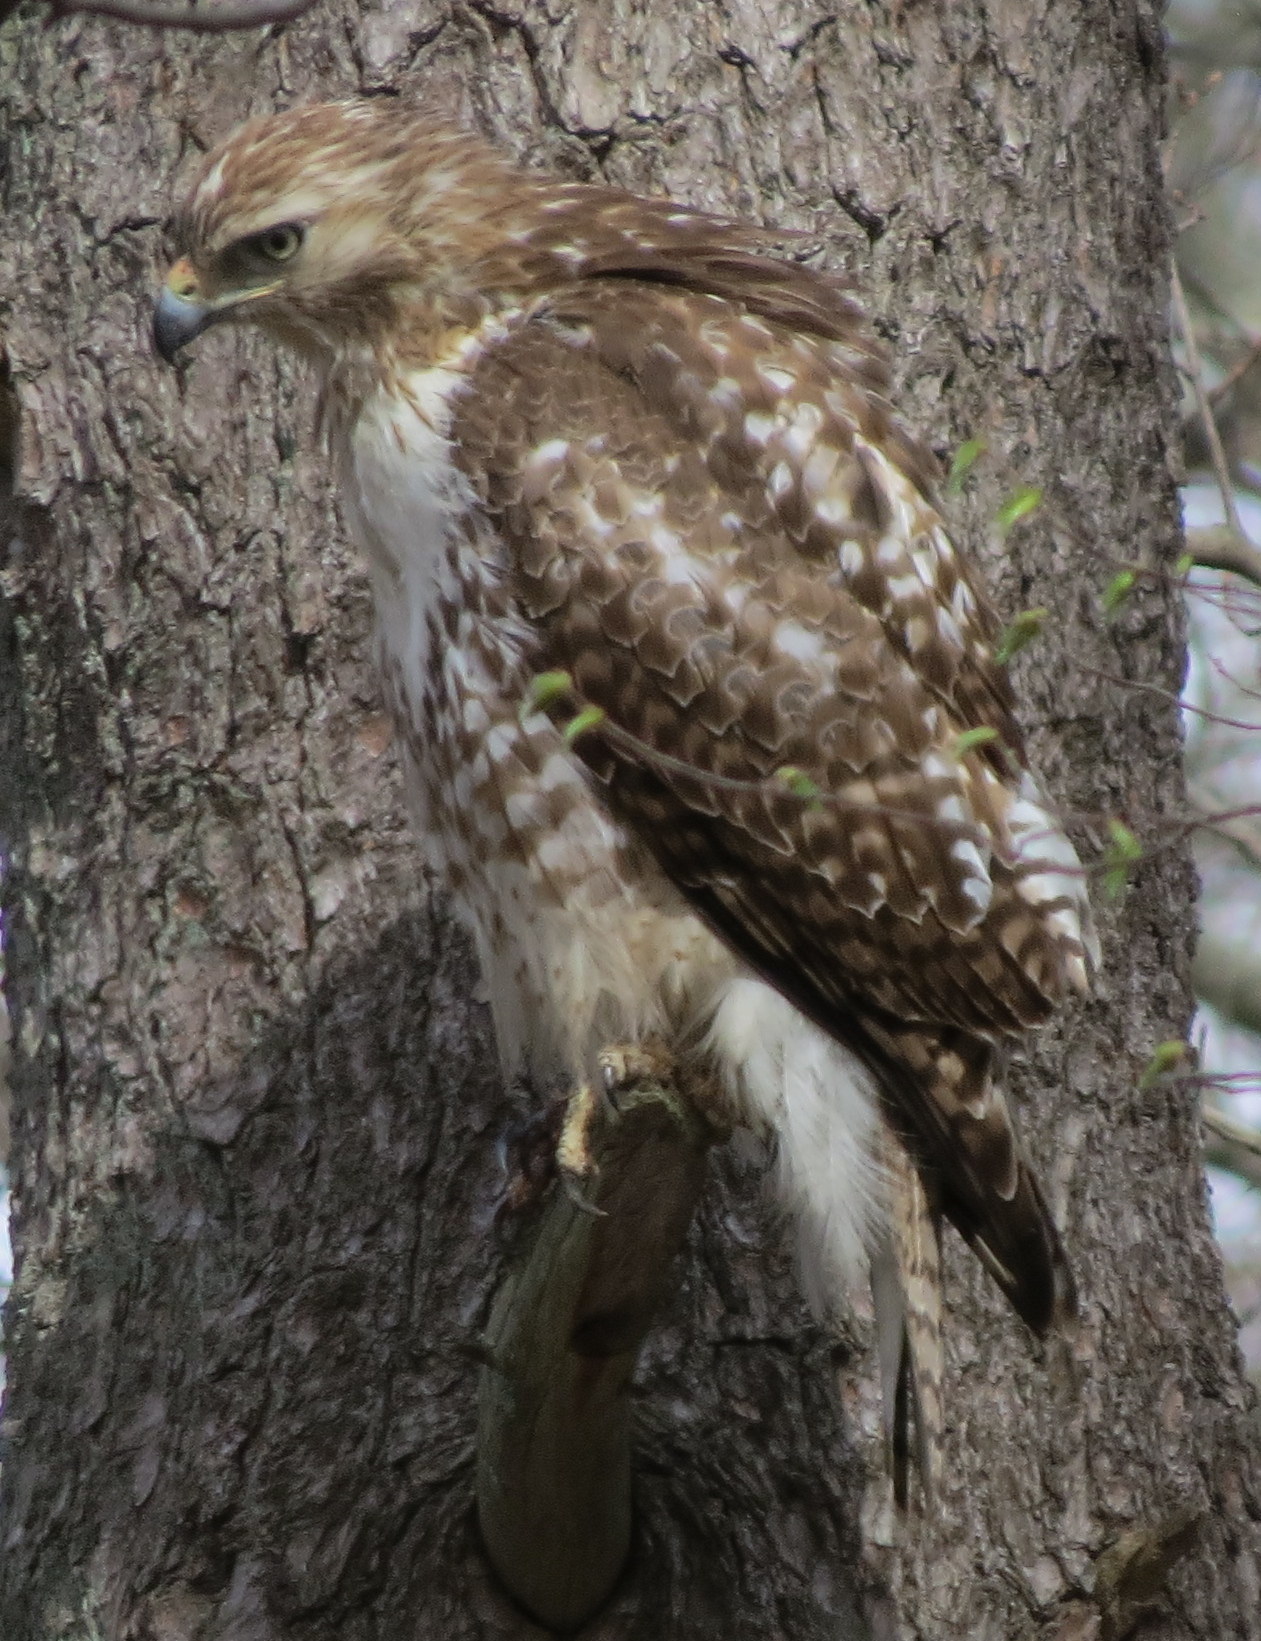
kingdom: Animalia
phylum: Chordata
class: Aves
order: Accipitriformes
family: Accipitridae
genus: Buteo
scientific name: Buteo jamaicensis
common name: Red-tailed hawk
